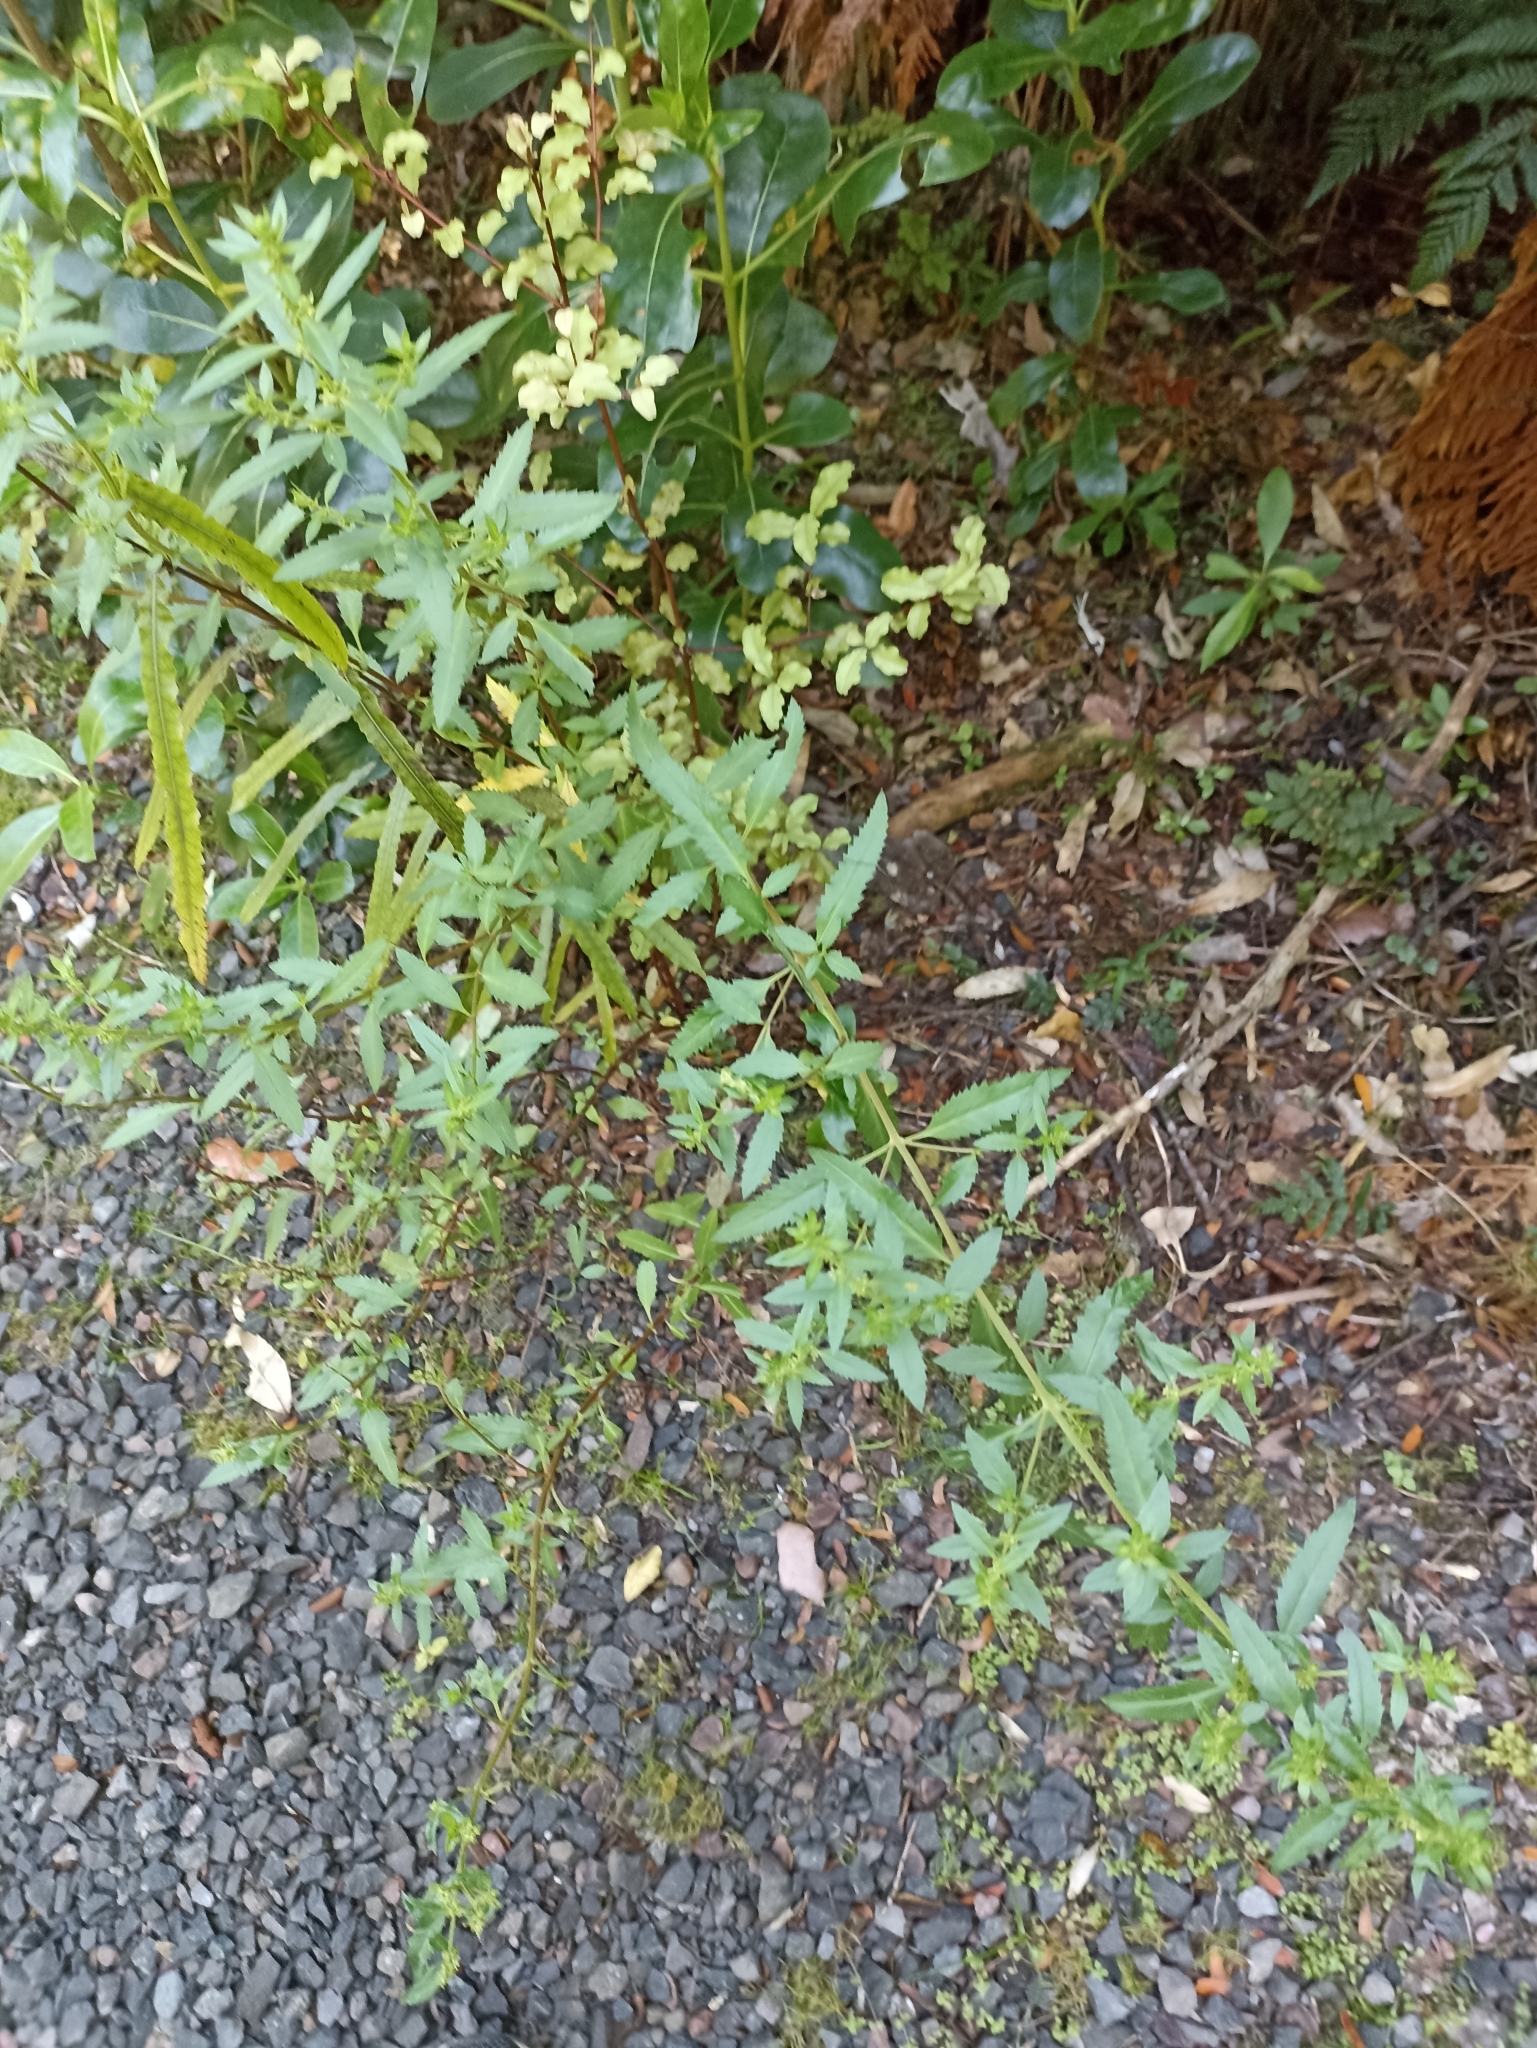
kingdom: Plantae
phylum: Tracheophyta
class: Magnoliopsida
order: Saxifragales
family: Haloragaceae
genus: Haloragis
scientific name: Haloragis erecta
